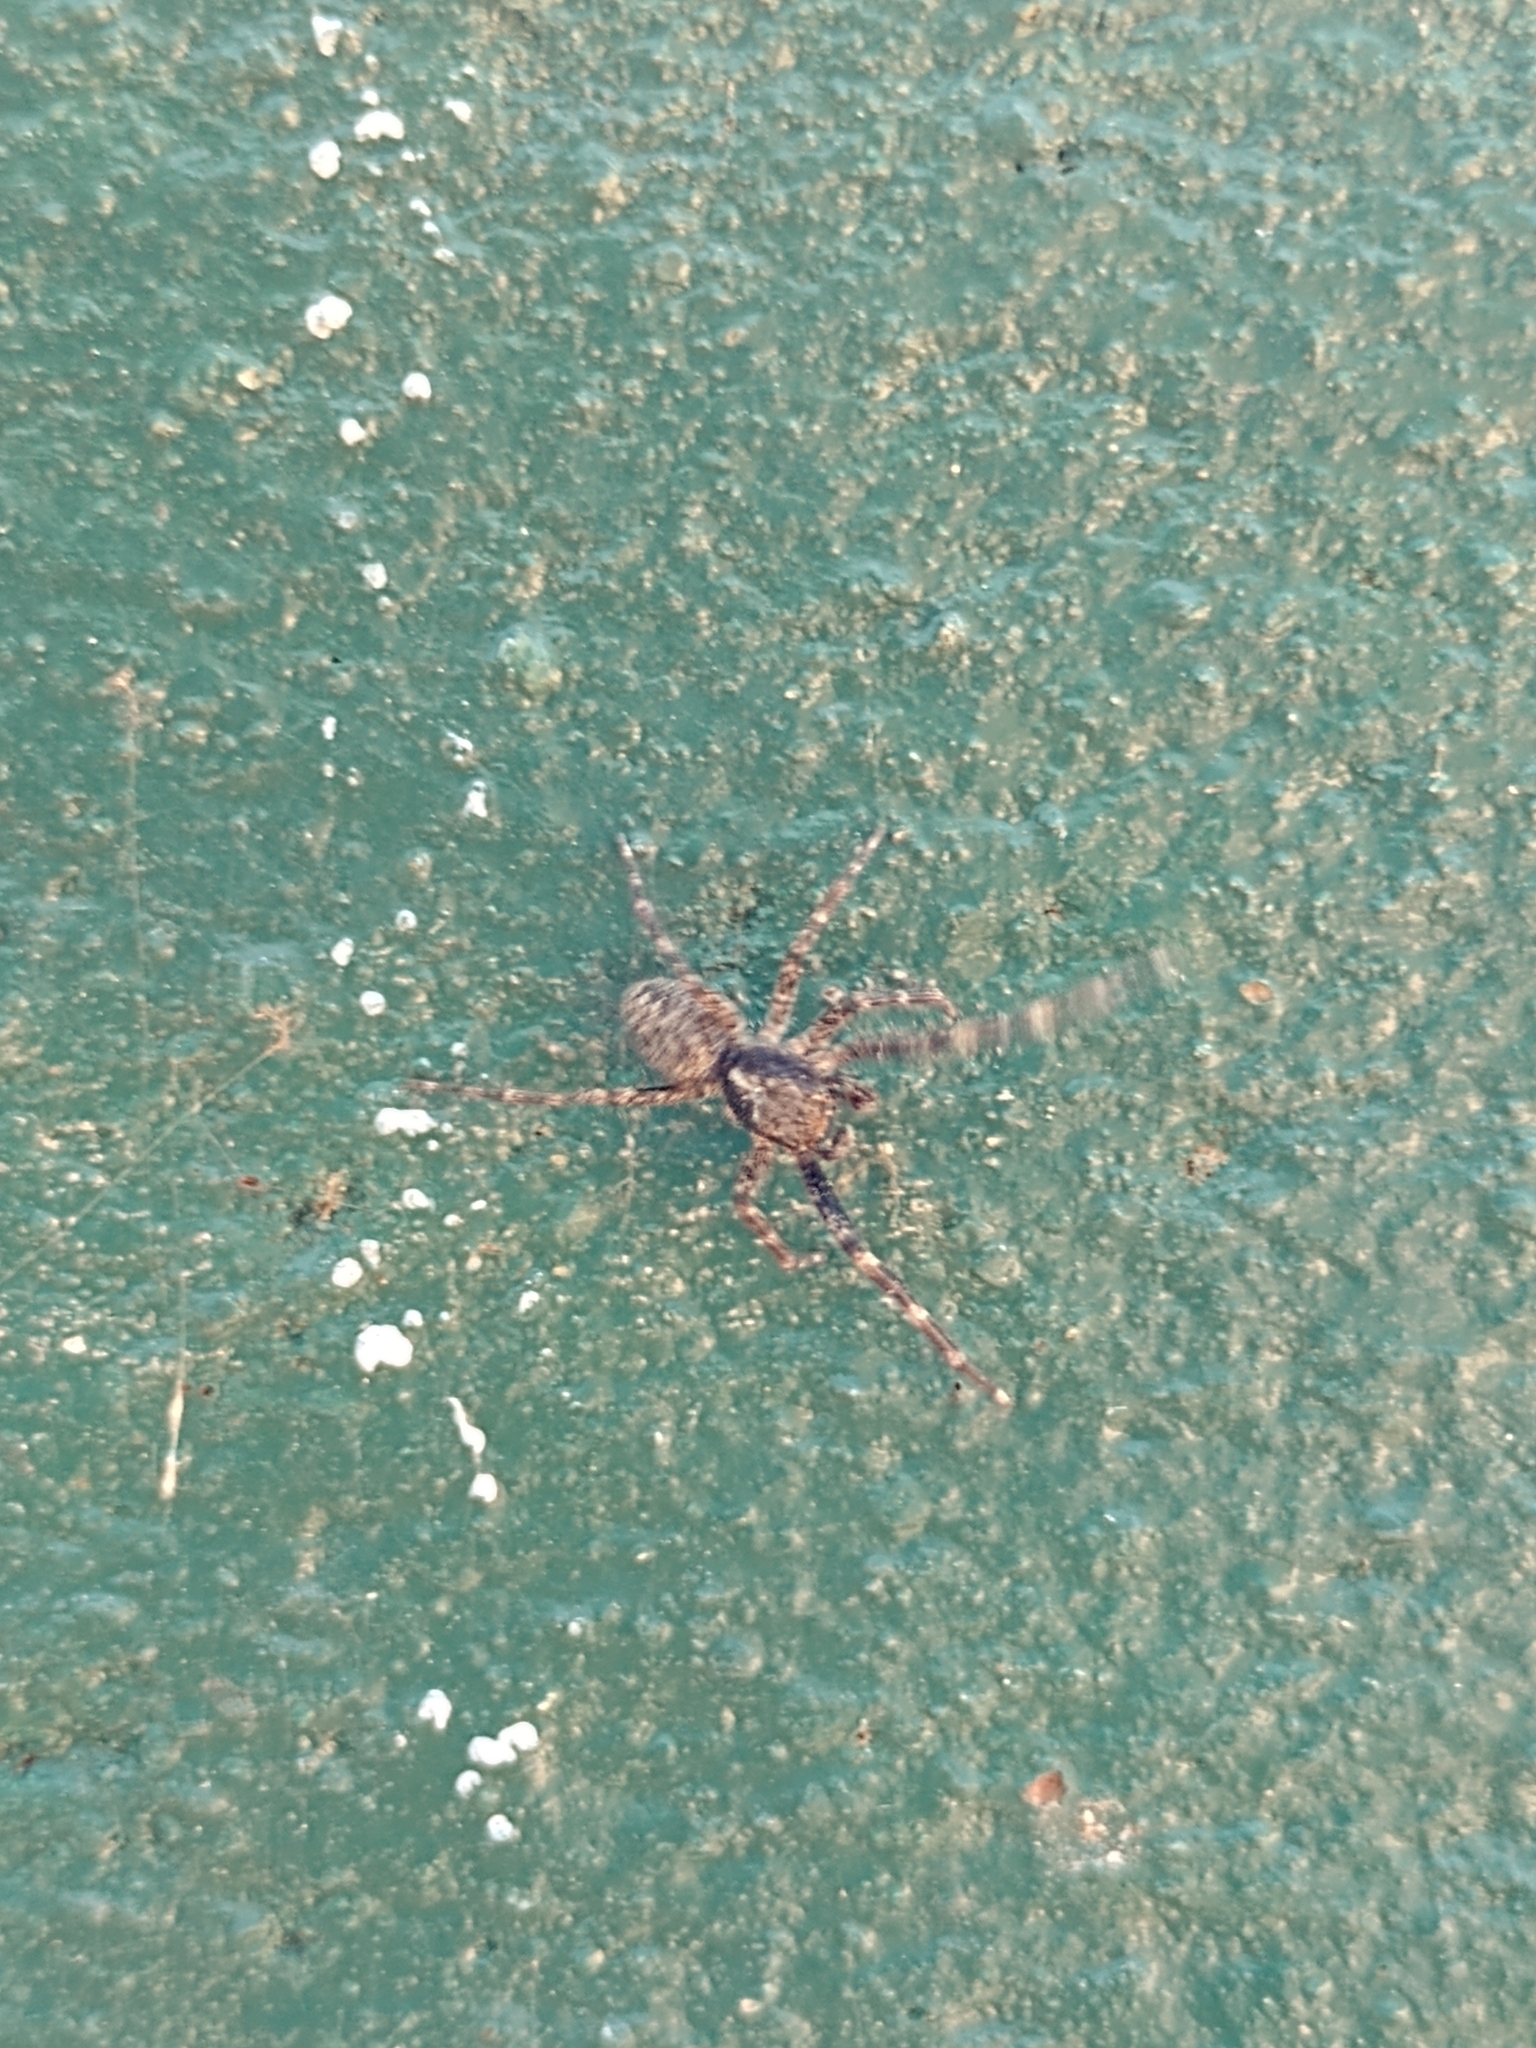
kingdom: Animalia
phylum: Arthropoda
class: Arachnida
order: Araneae
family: Salticidae
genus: Titanattus
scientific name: Titanattus andinus
